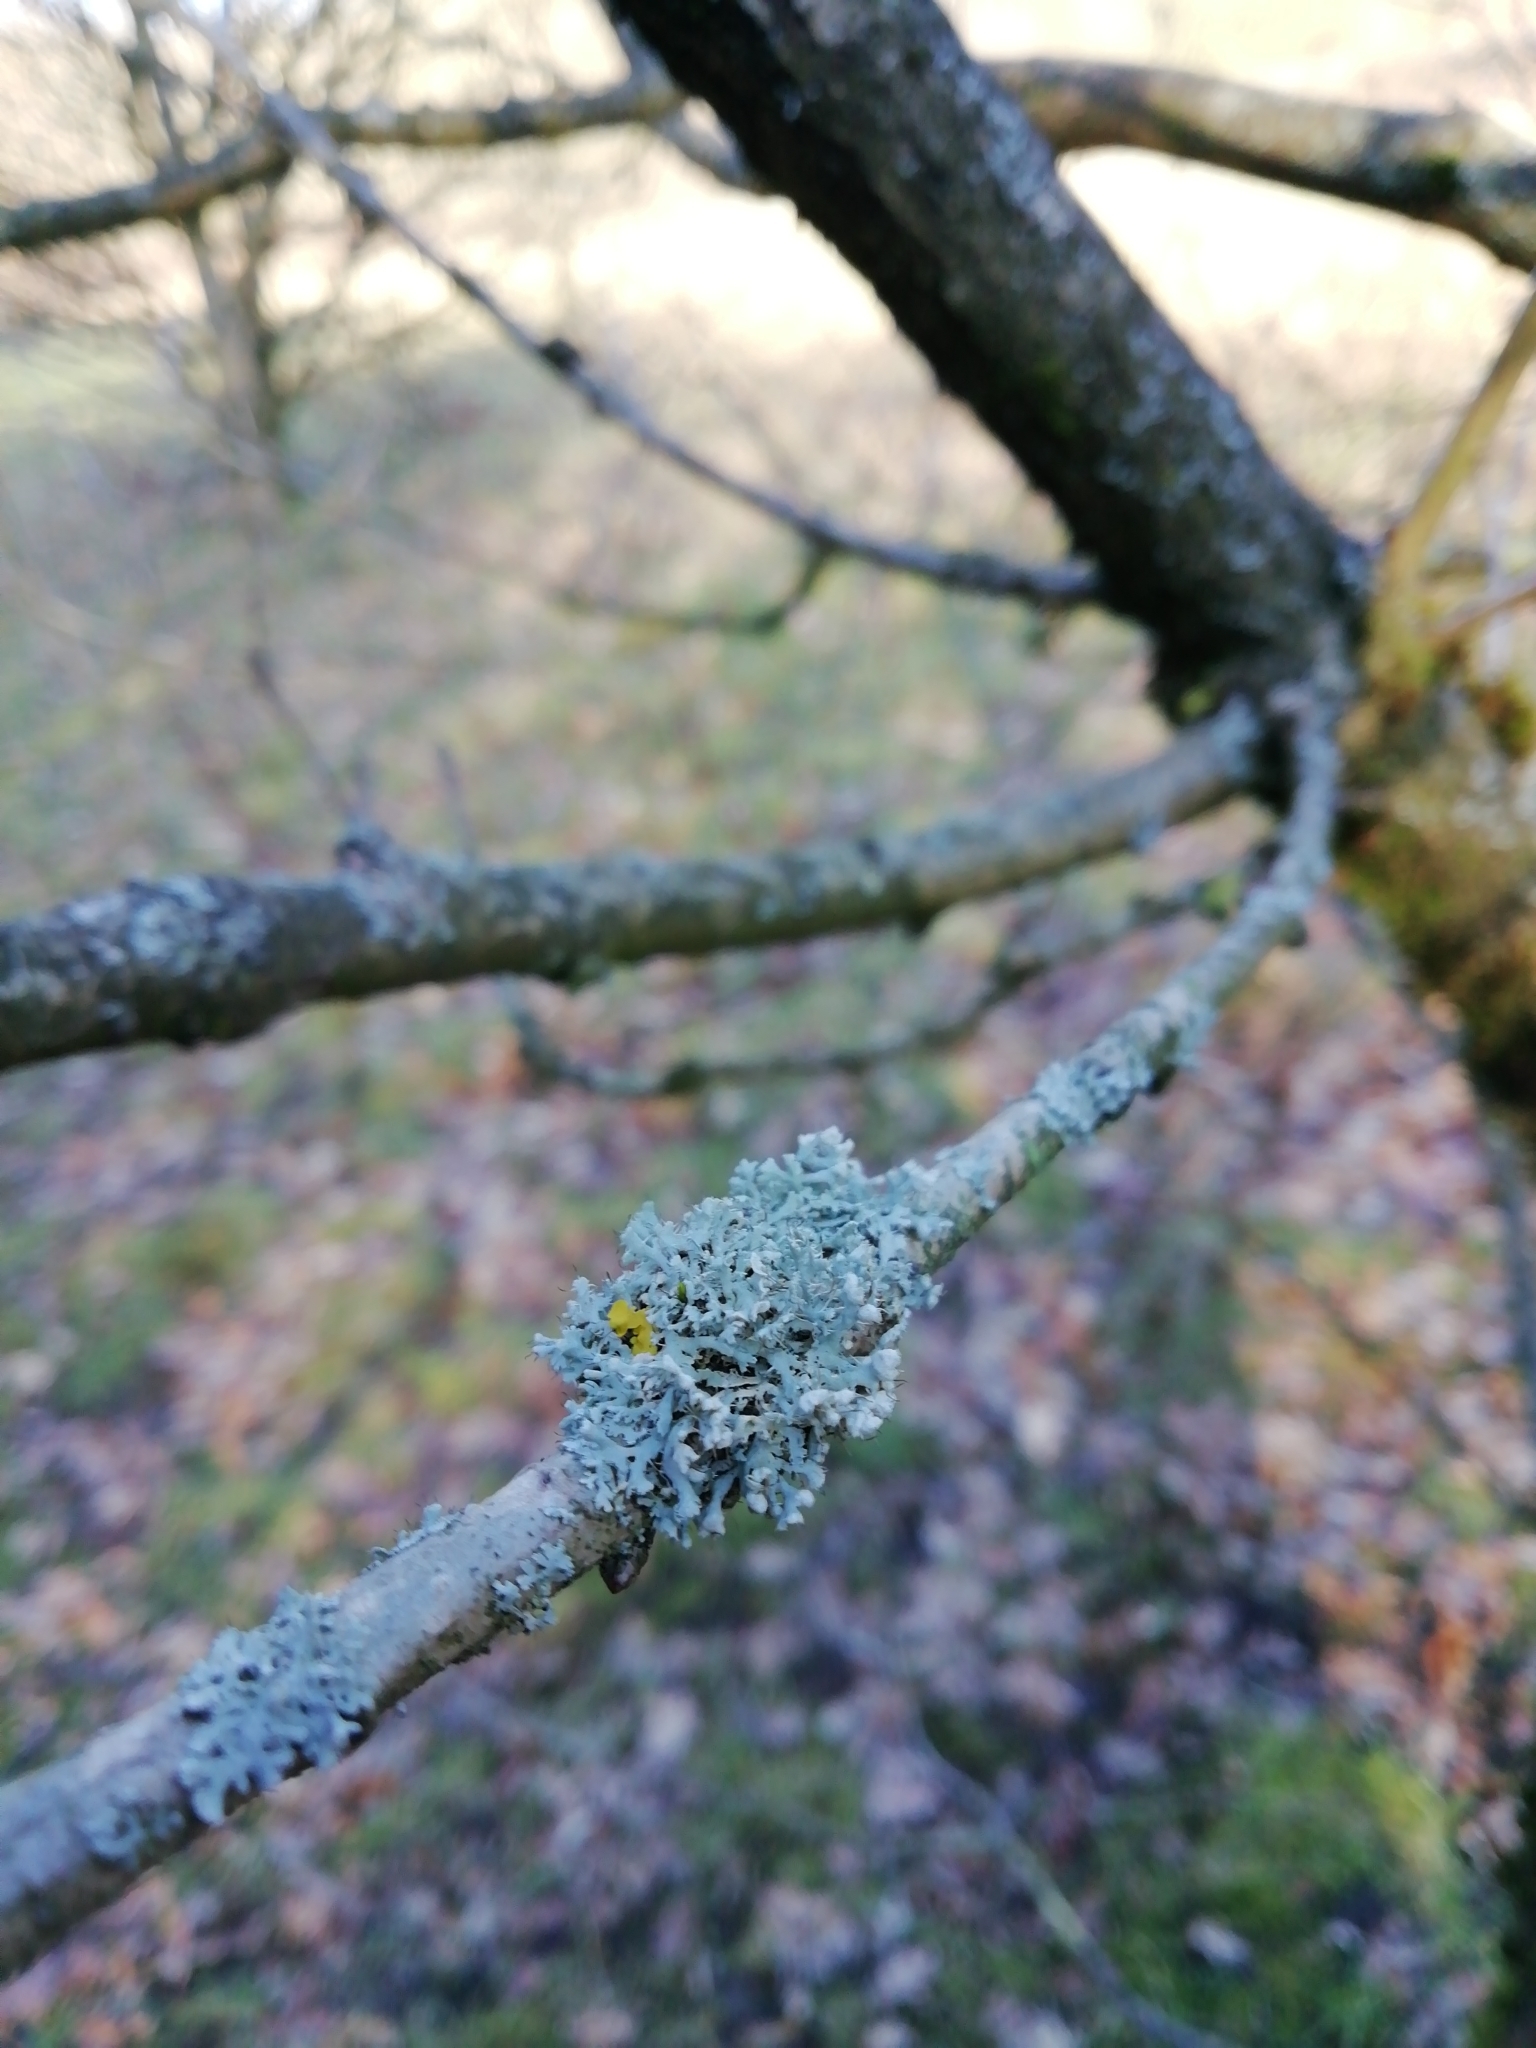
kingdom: Fungi
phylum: Ascomycota
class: Lecanoromycetes
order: Caliciales
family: Physciaceae
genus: Physcia
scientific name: Physcia adscendens
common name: Hooded rosette lichen
